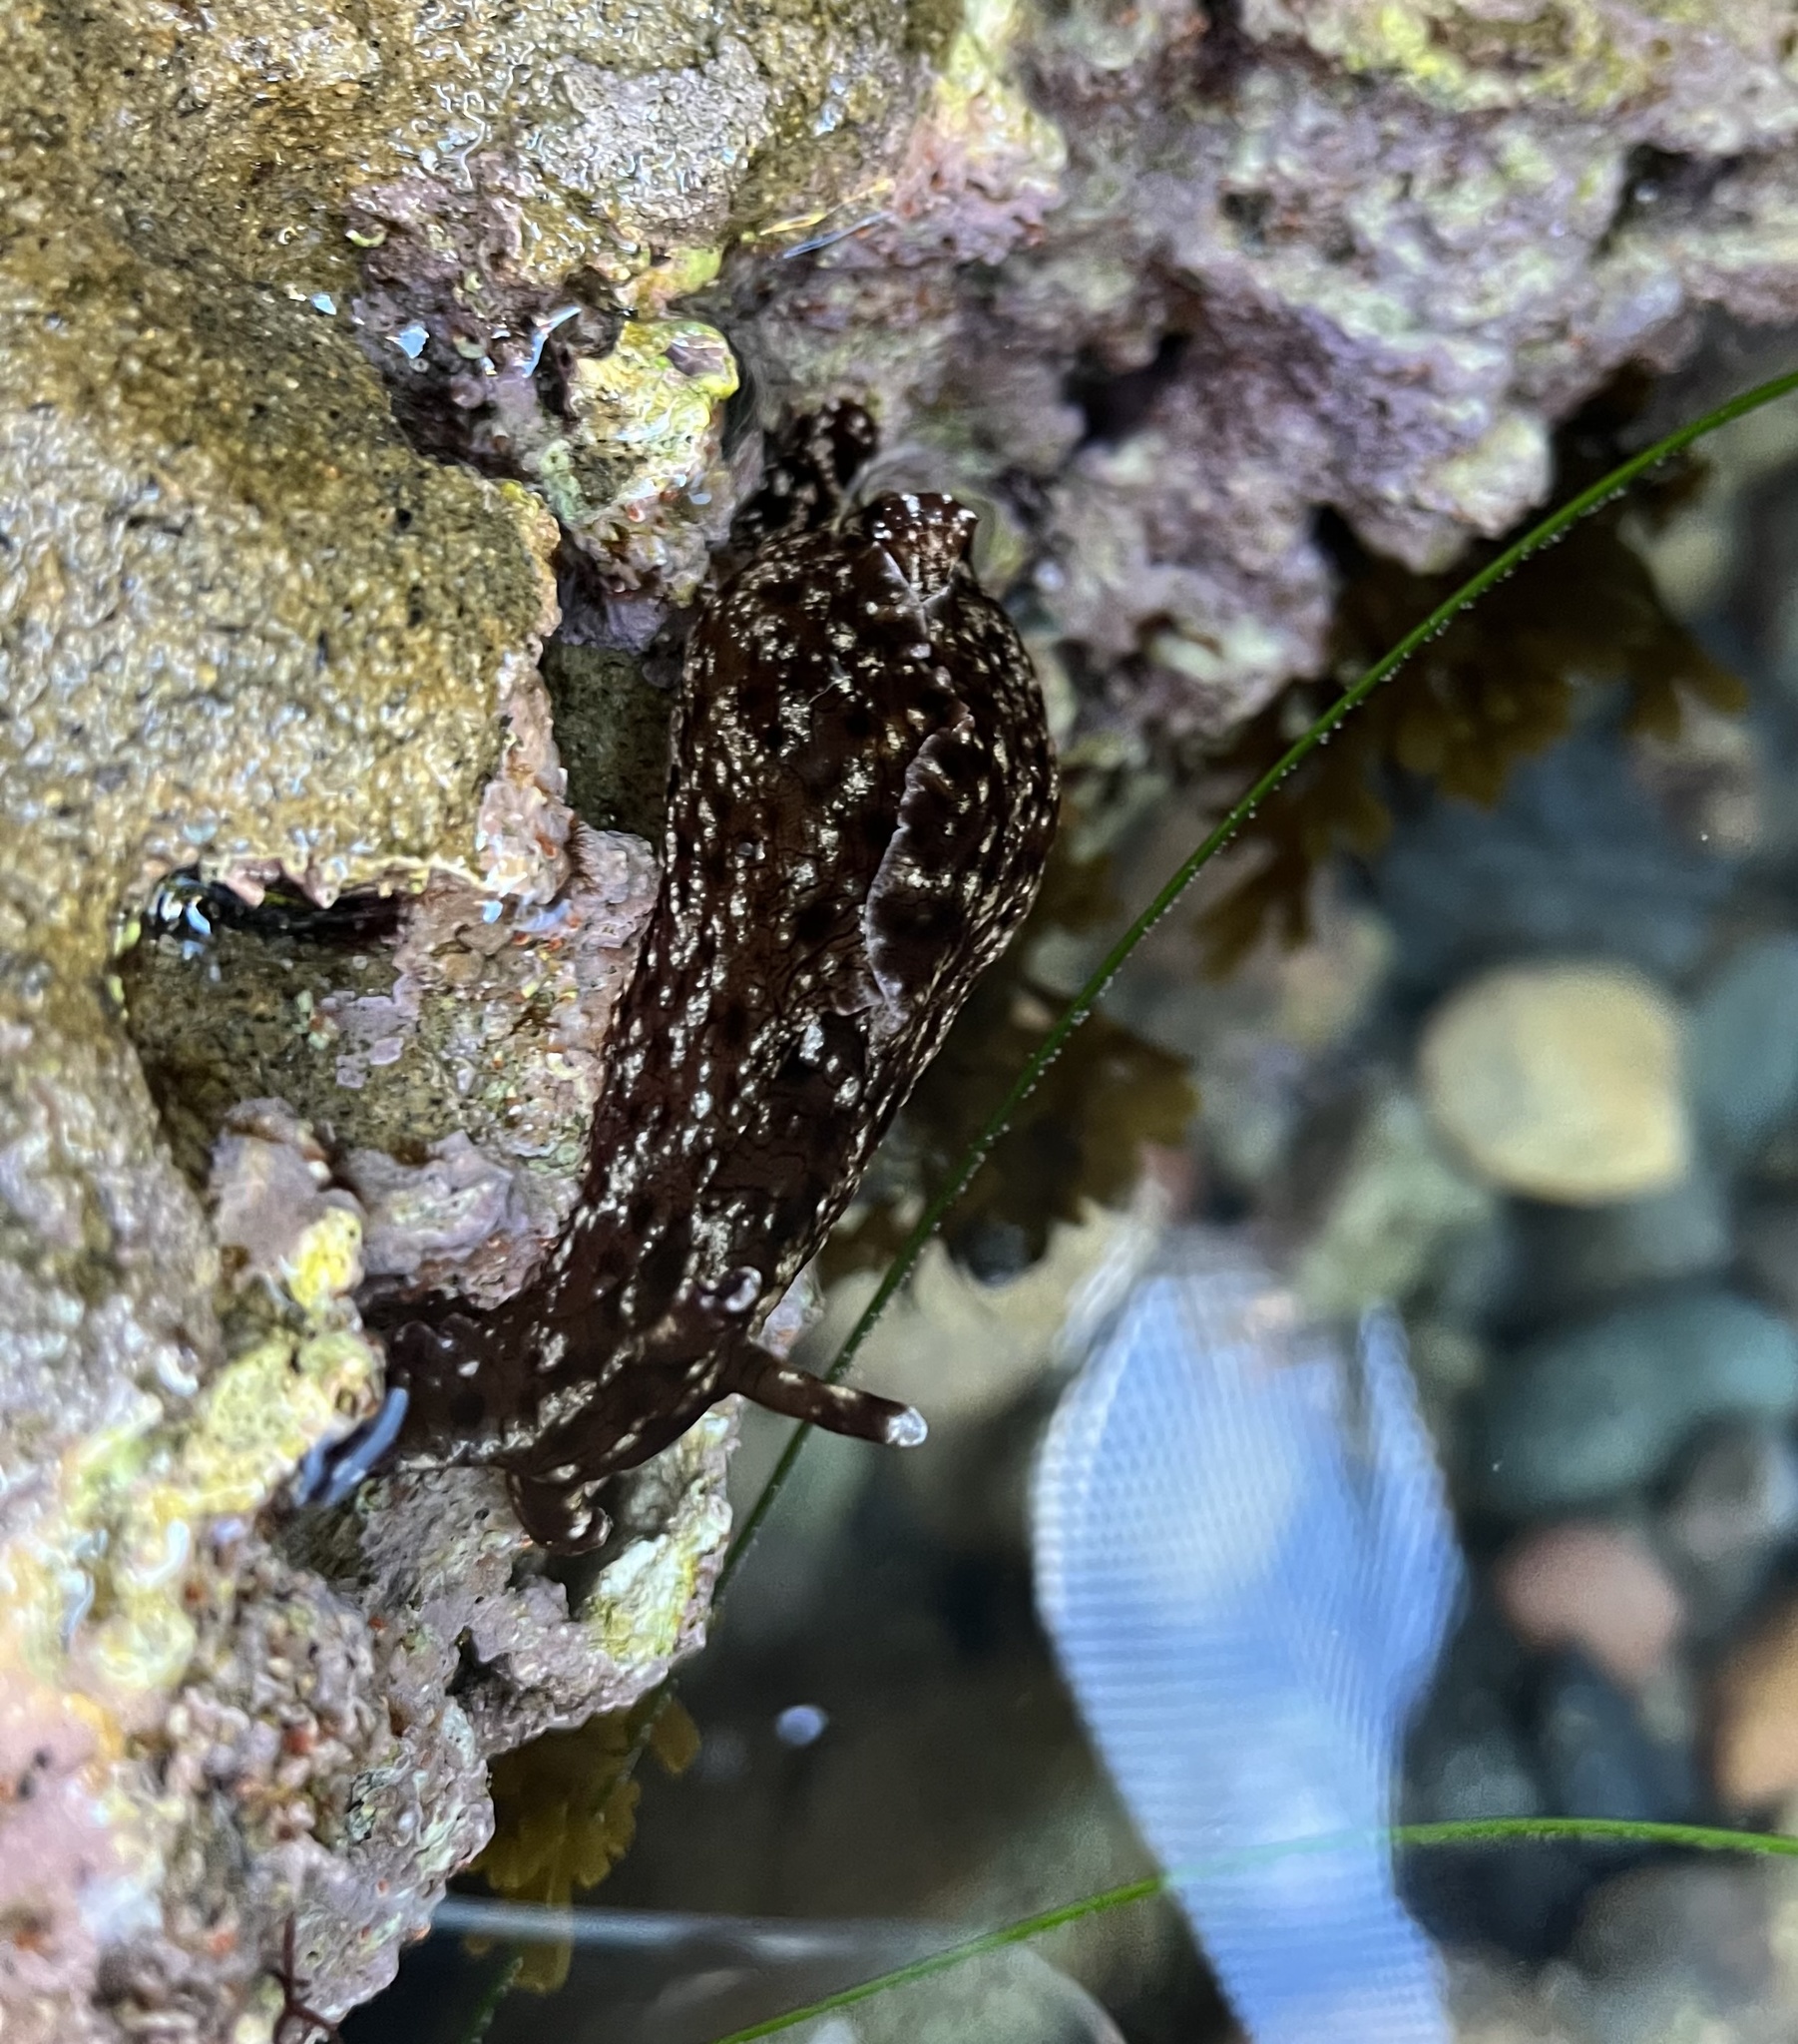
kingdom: Animalia
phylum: Mollusca
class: Gastropoda
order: Aplysiida
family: Aplysiidae
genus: Aplysia
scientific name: Aplysia californica
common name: California seahare
